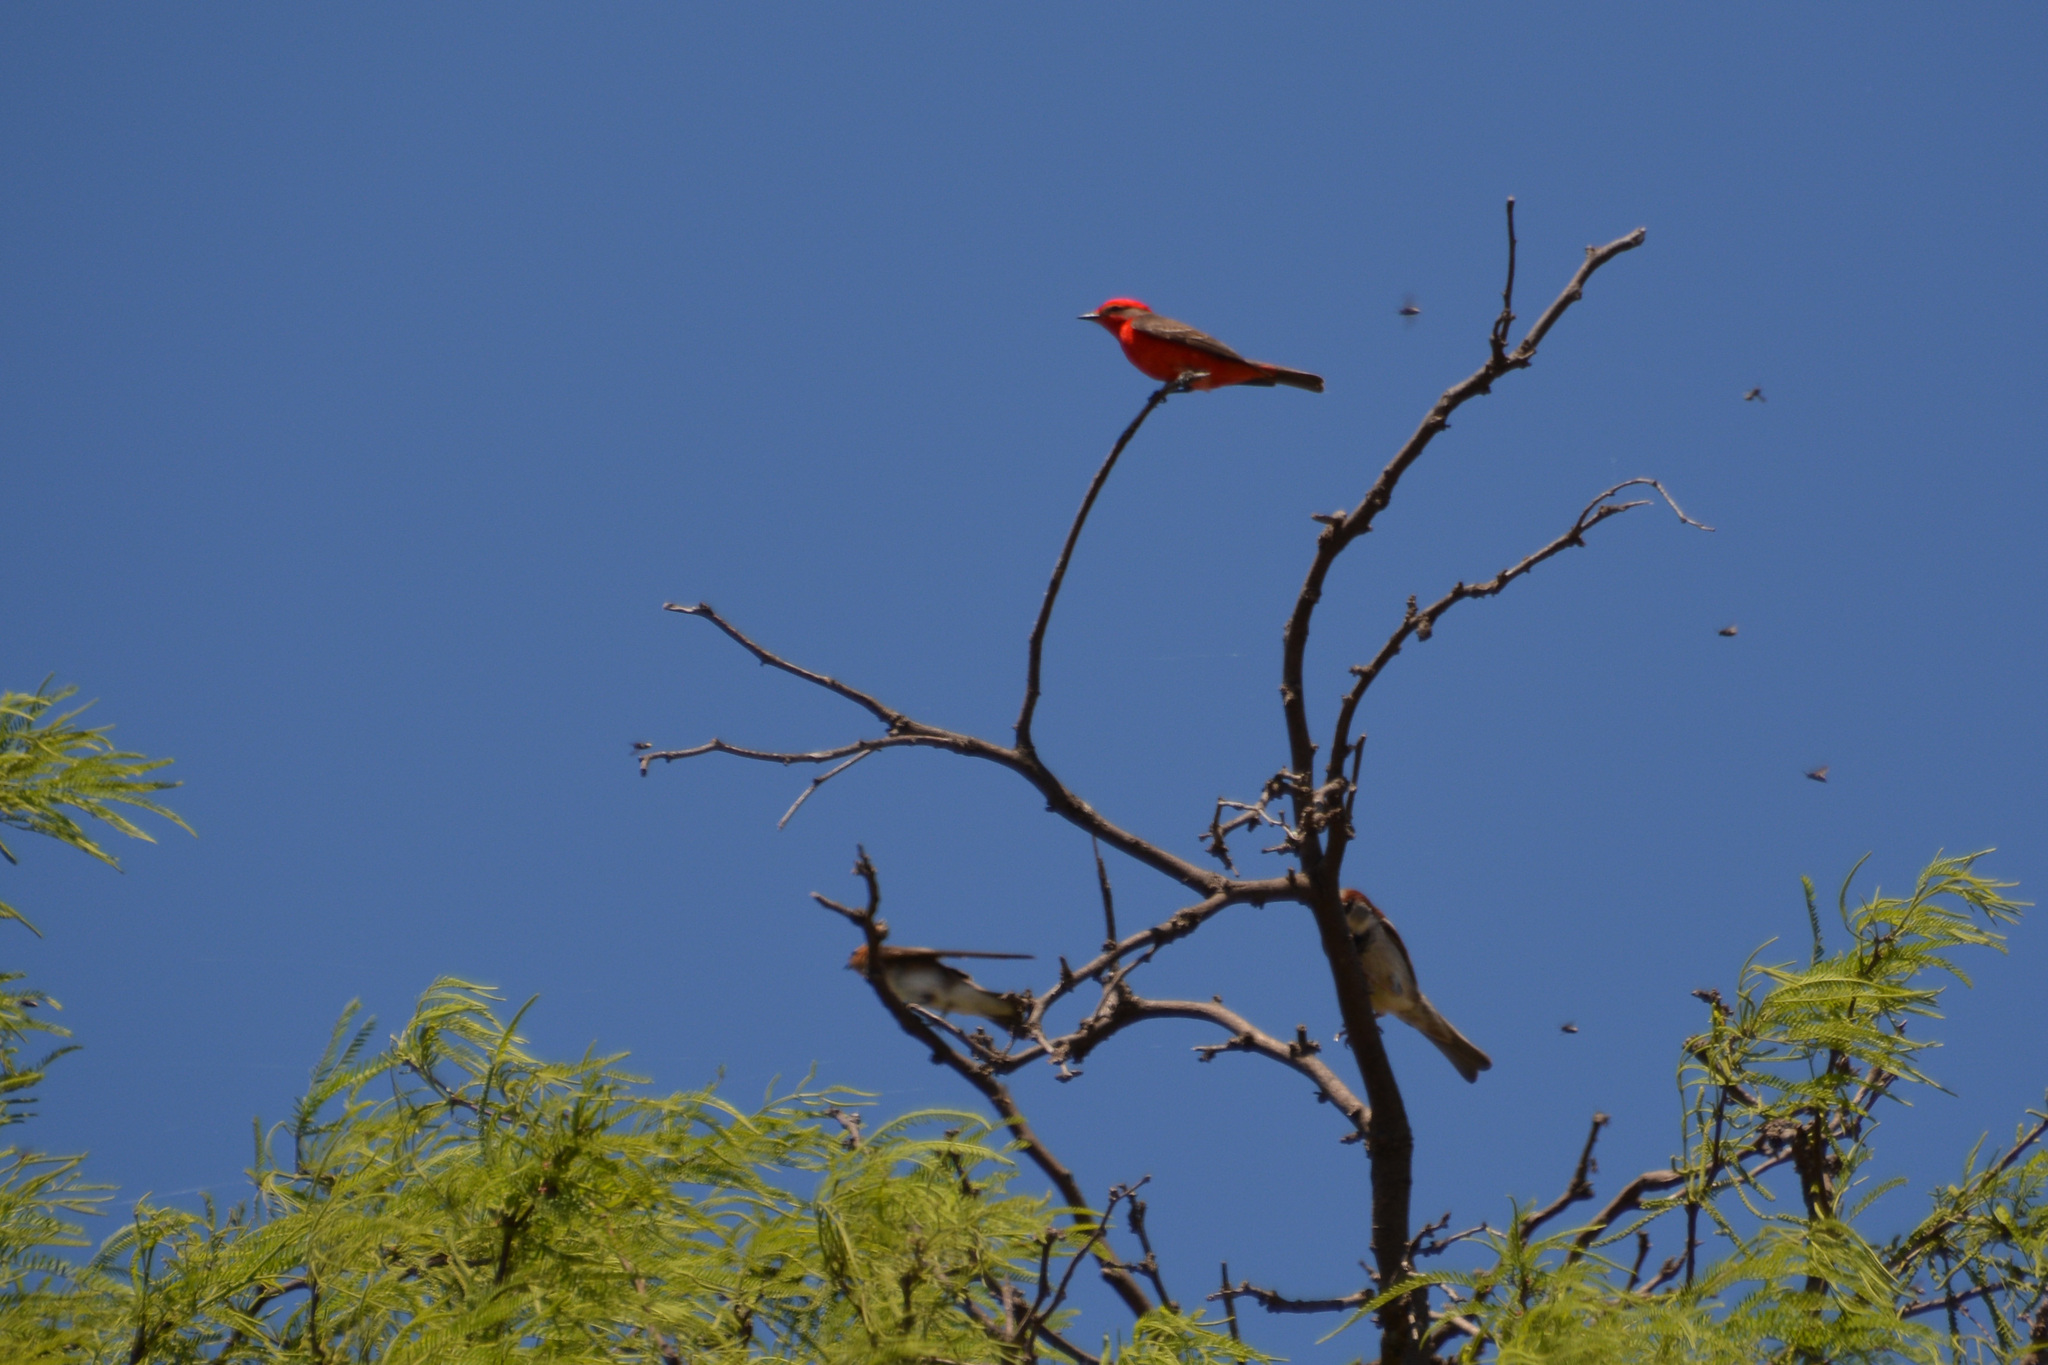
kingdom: Animalia
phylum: Chordata
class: Aves
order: Passeriformes
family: Tyrannidae
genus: Pyrocephalus
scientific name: Pyrocephalus rubinus
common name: Vermilion flycatcher
